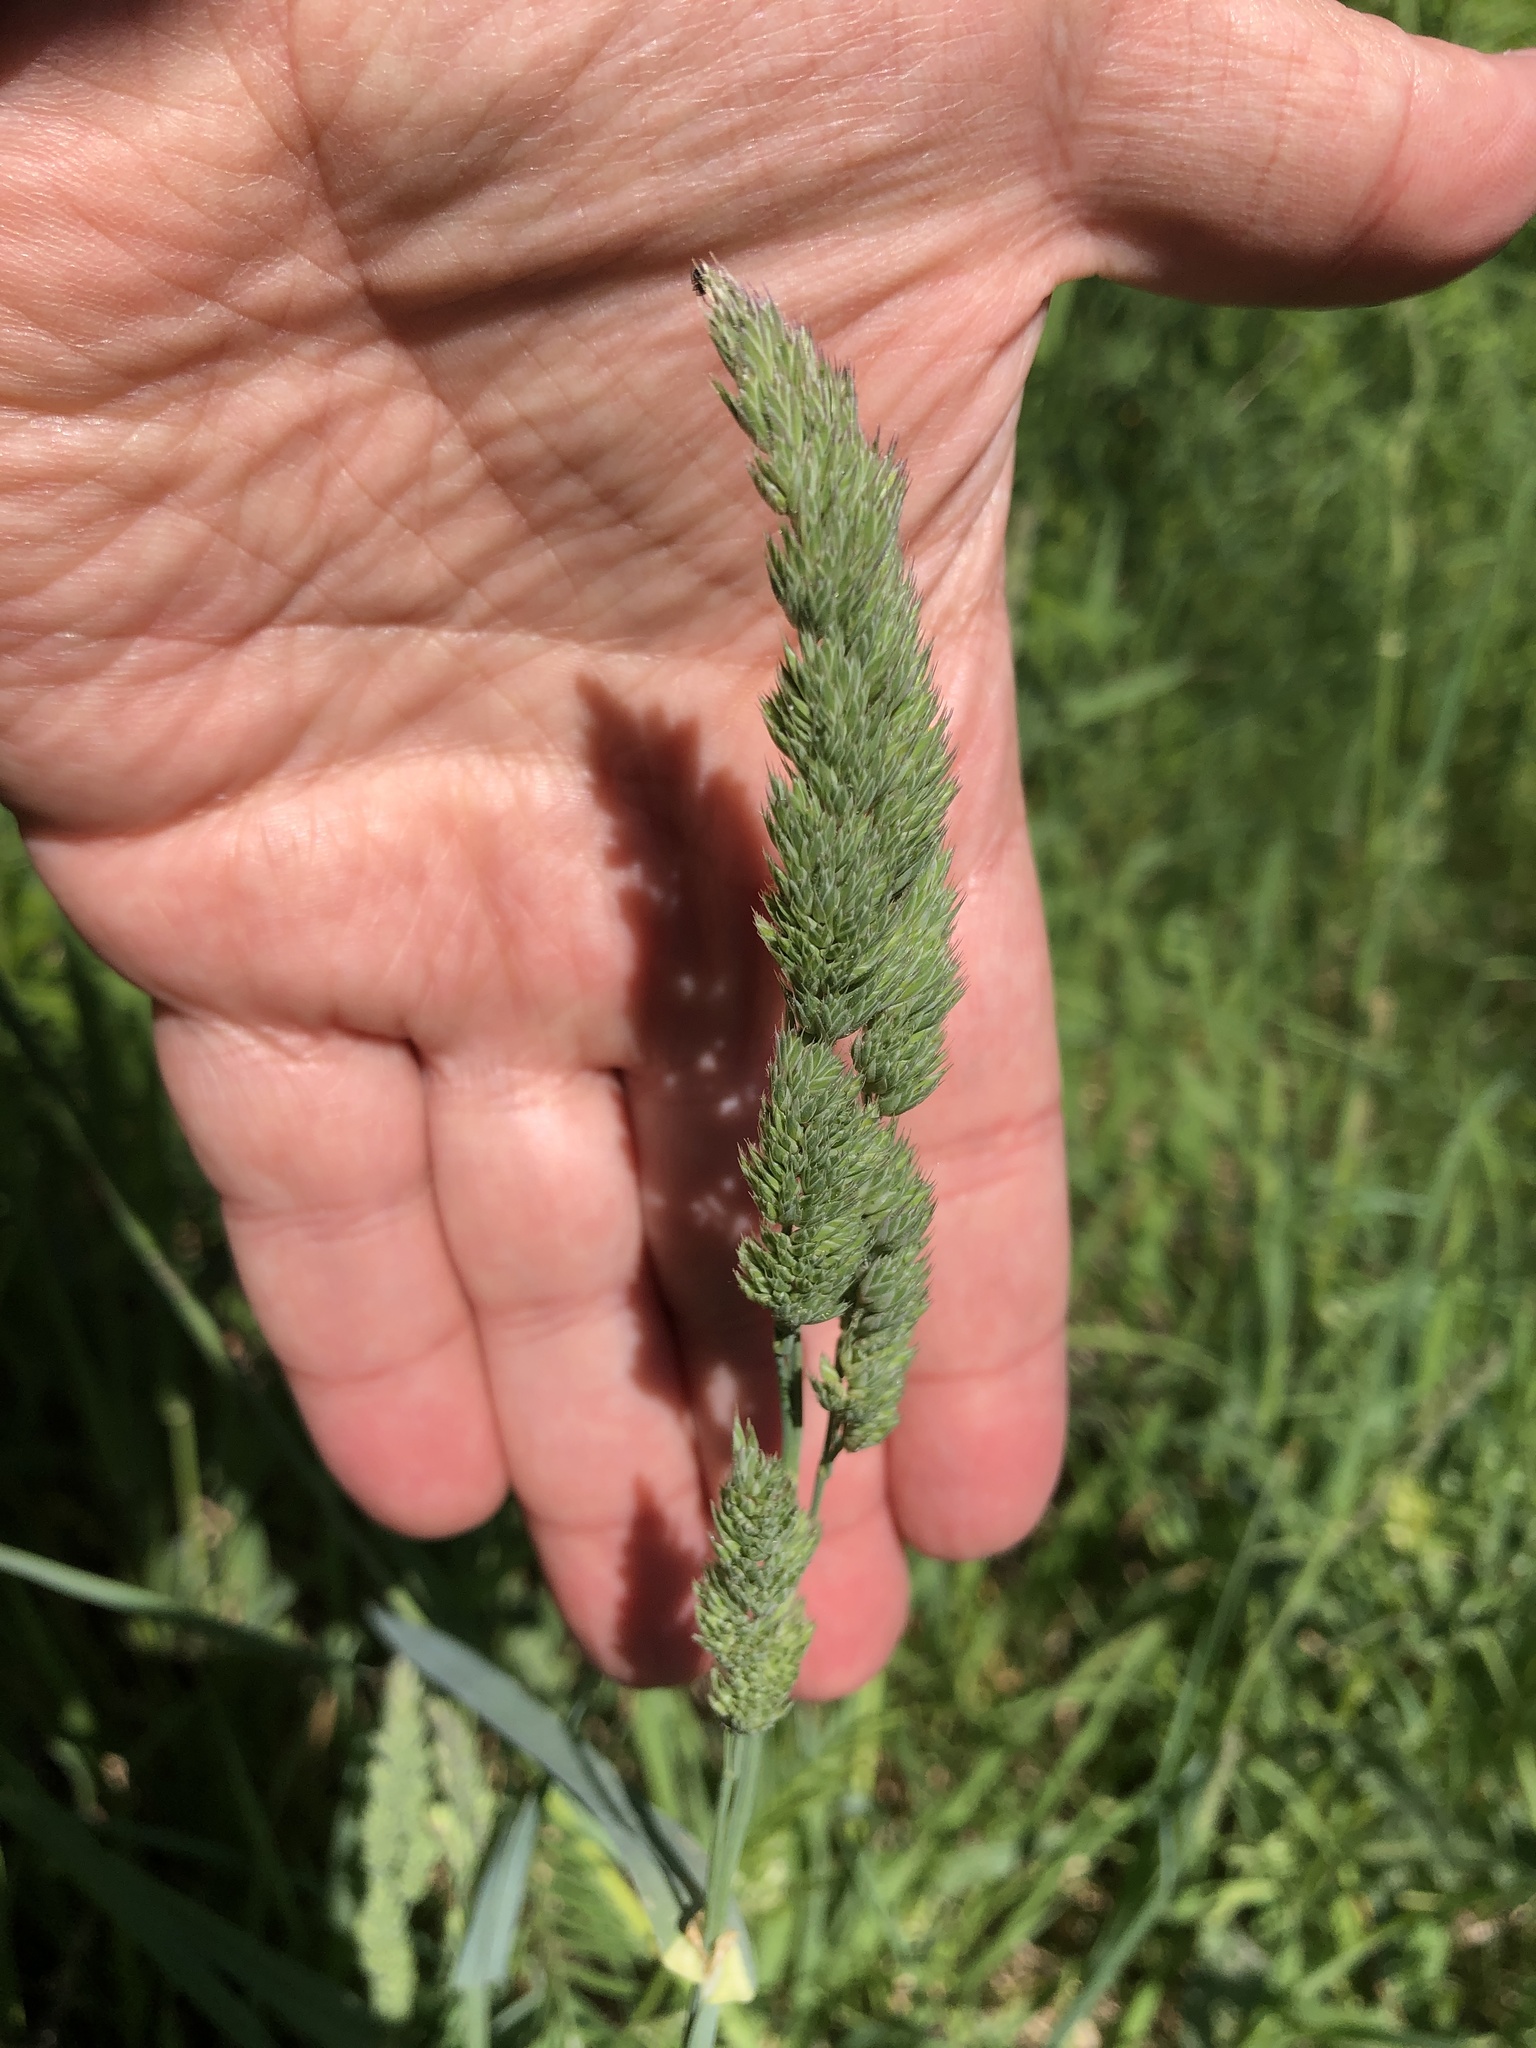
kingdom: Plantae
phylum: Tracheophyta
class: Liliopsida
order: Poales
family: Poaceae
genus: Dactylis
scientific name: Dactylis glomerata
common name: Orchardgrass
